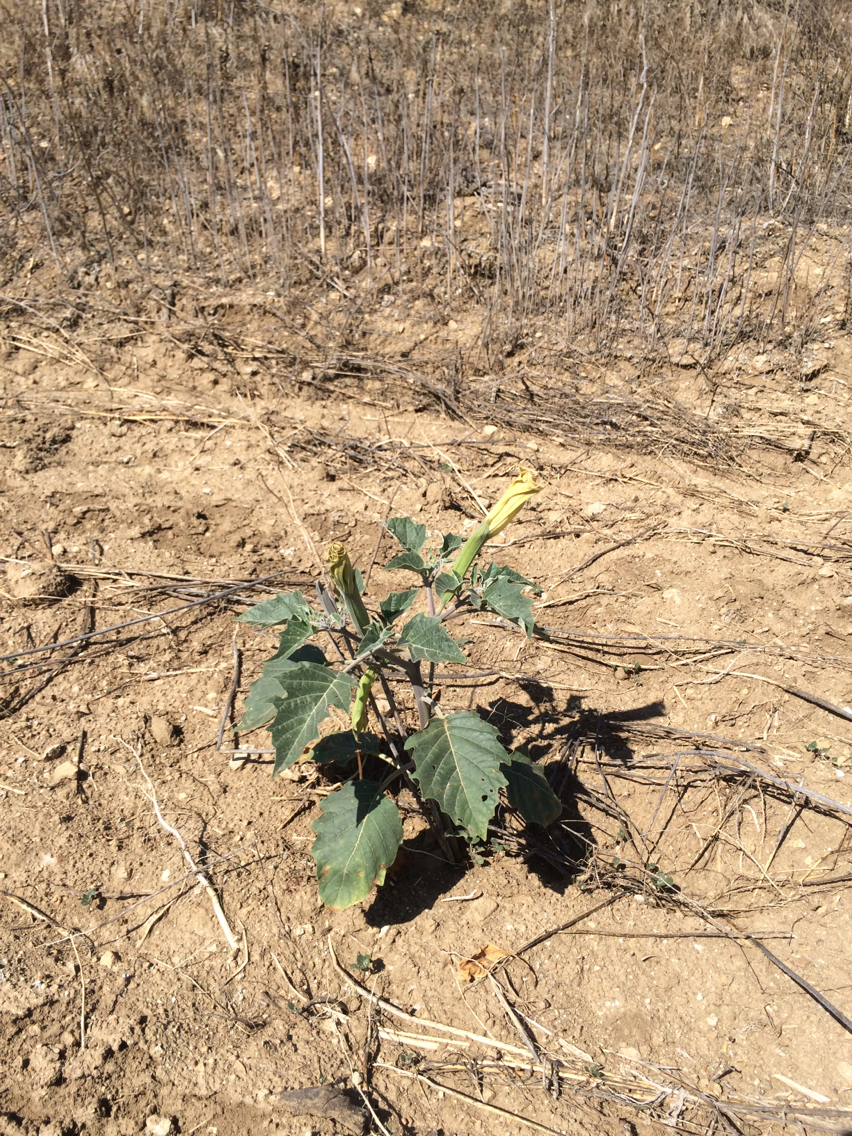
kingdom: Plantae
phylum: Tracheophyta
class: Magnoliopsida
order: Solanales
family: Solanaceae
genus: Datura
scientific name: Datura wrightii
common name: Sacred thorn-apple
